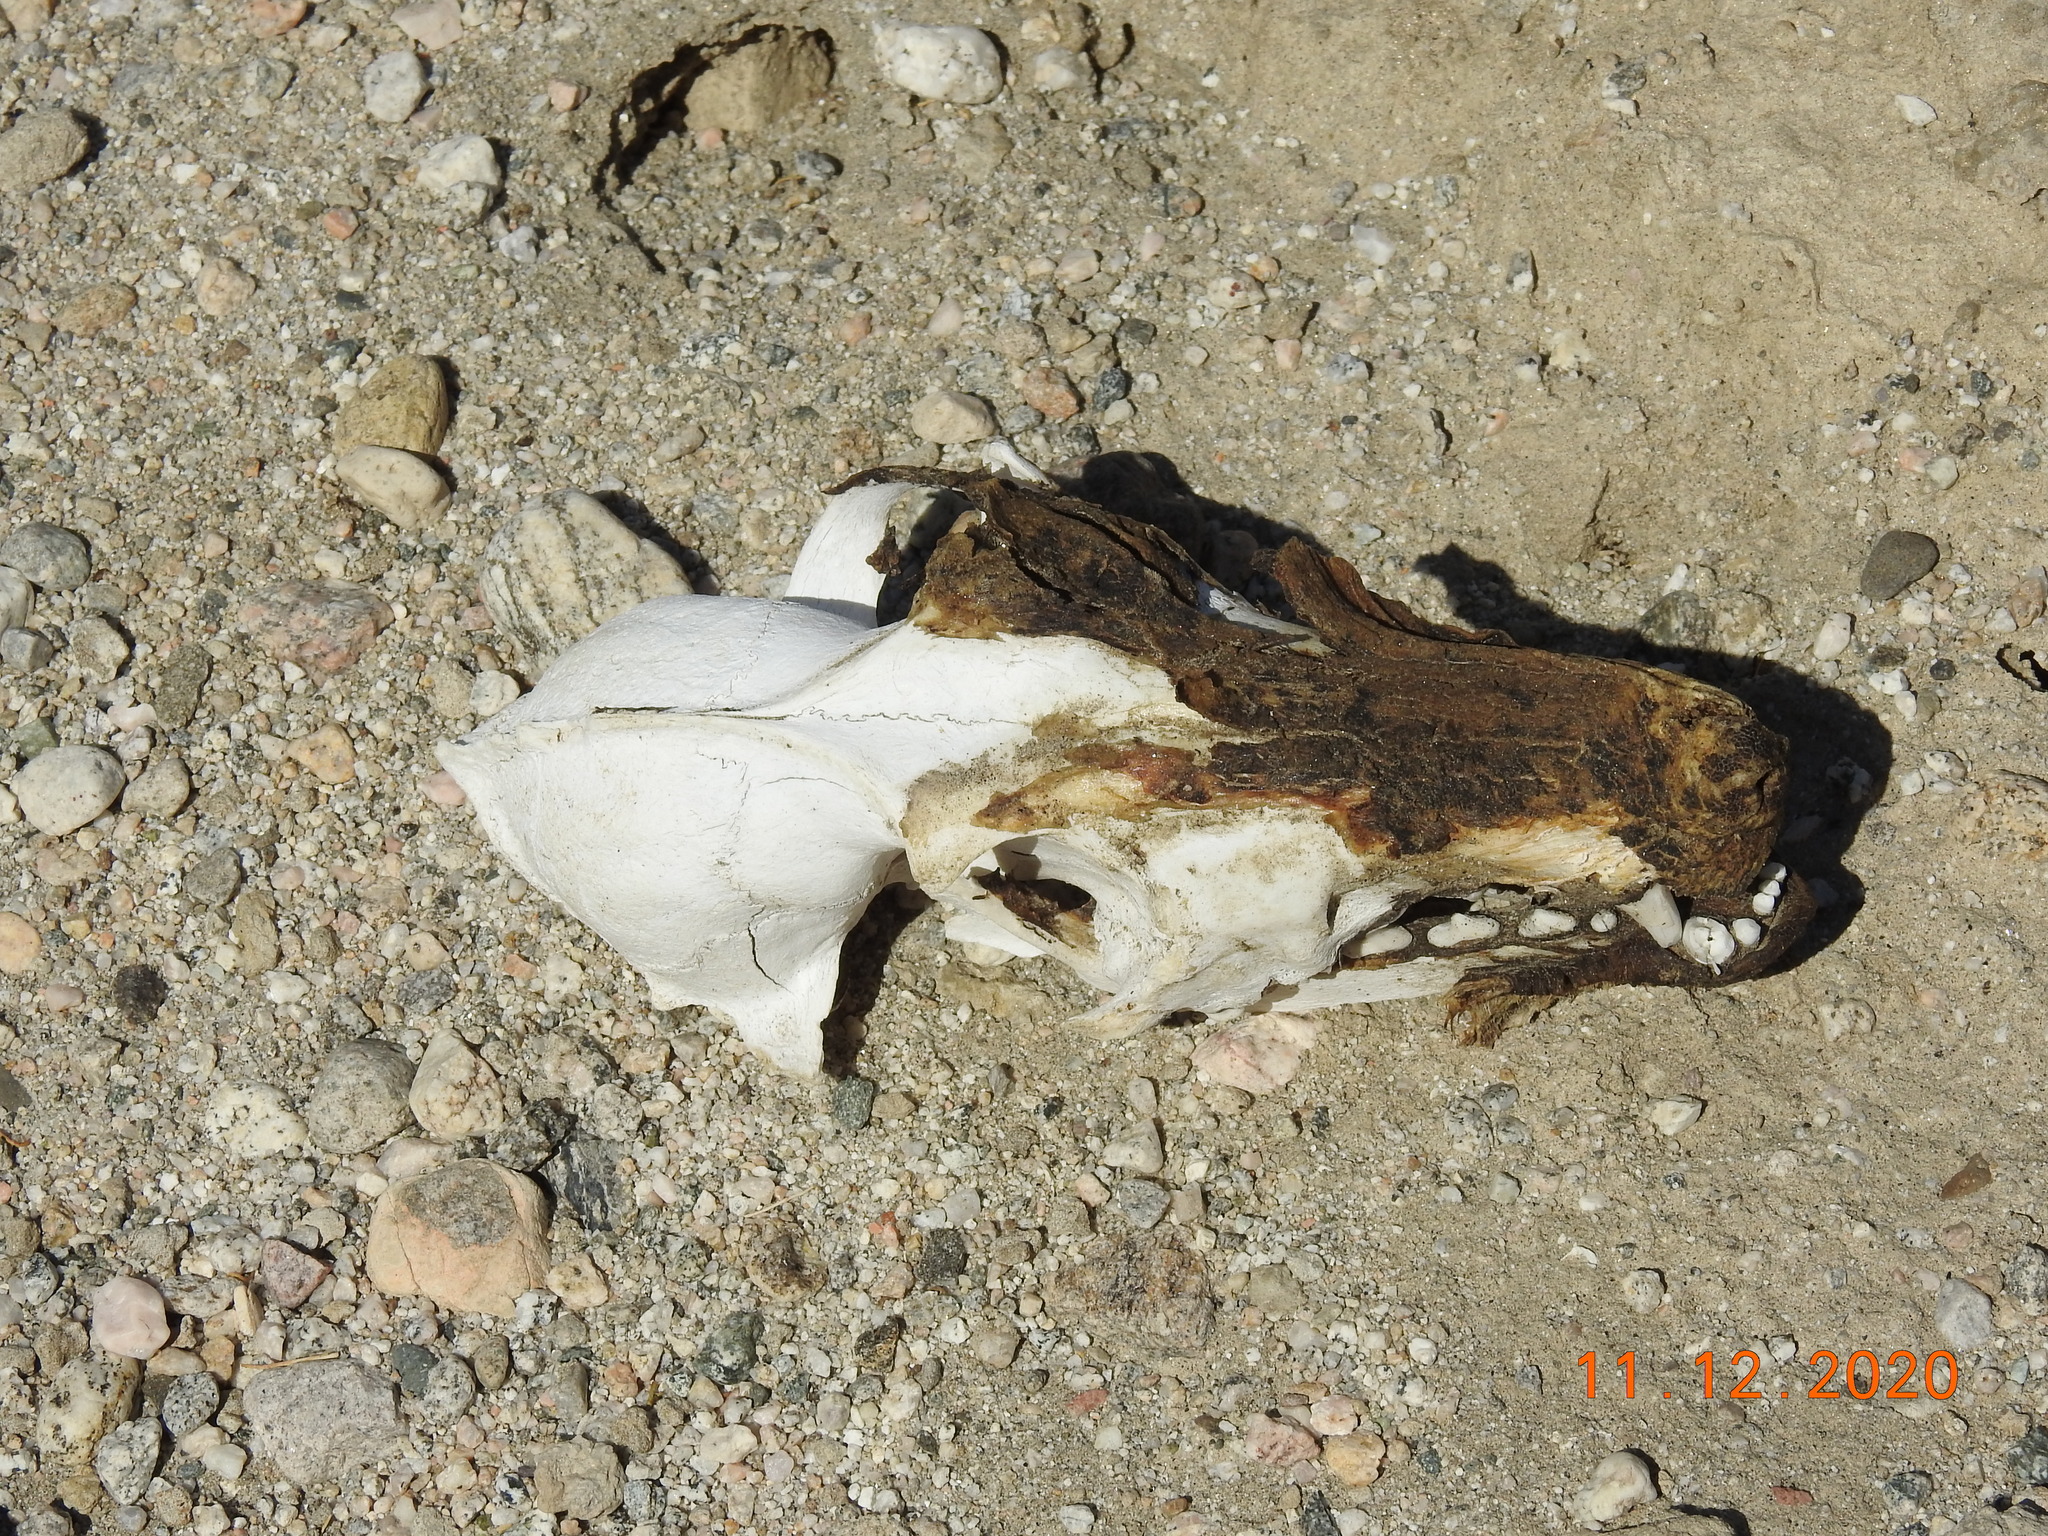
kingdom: Animalia
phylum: Chordata
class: Mammalia
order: Carnivora
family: Canidae
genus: Canis
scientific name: Canis latrans
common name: Coyote
